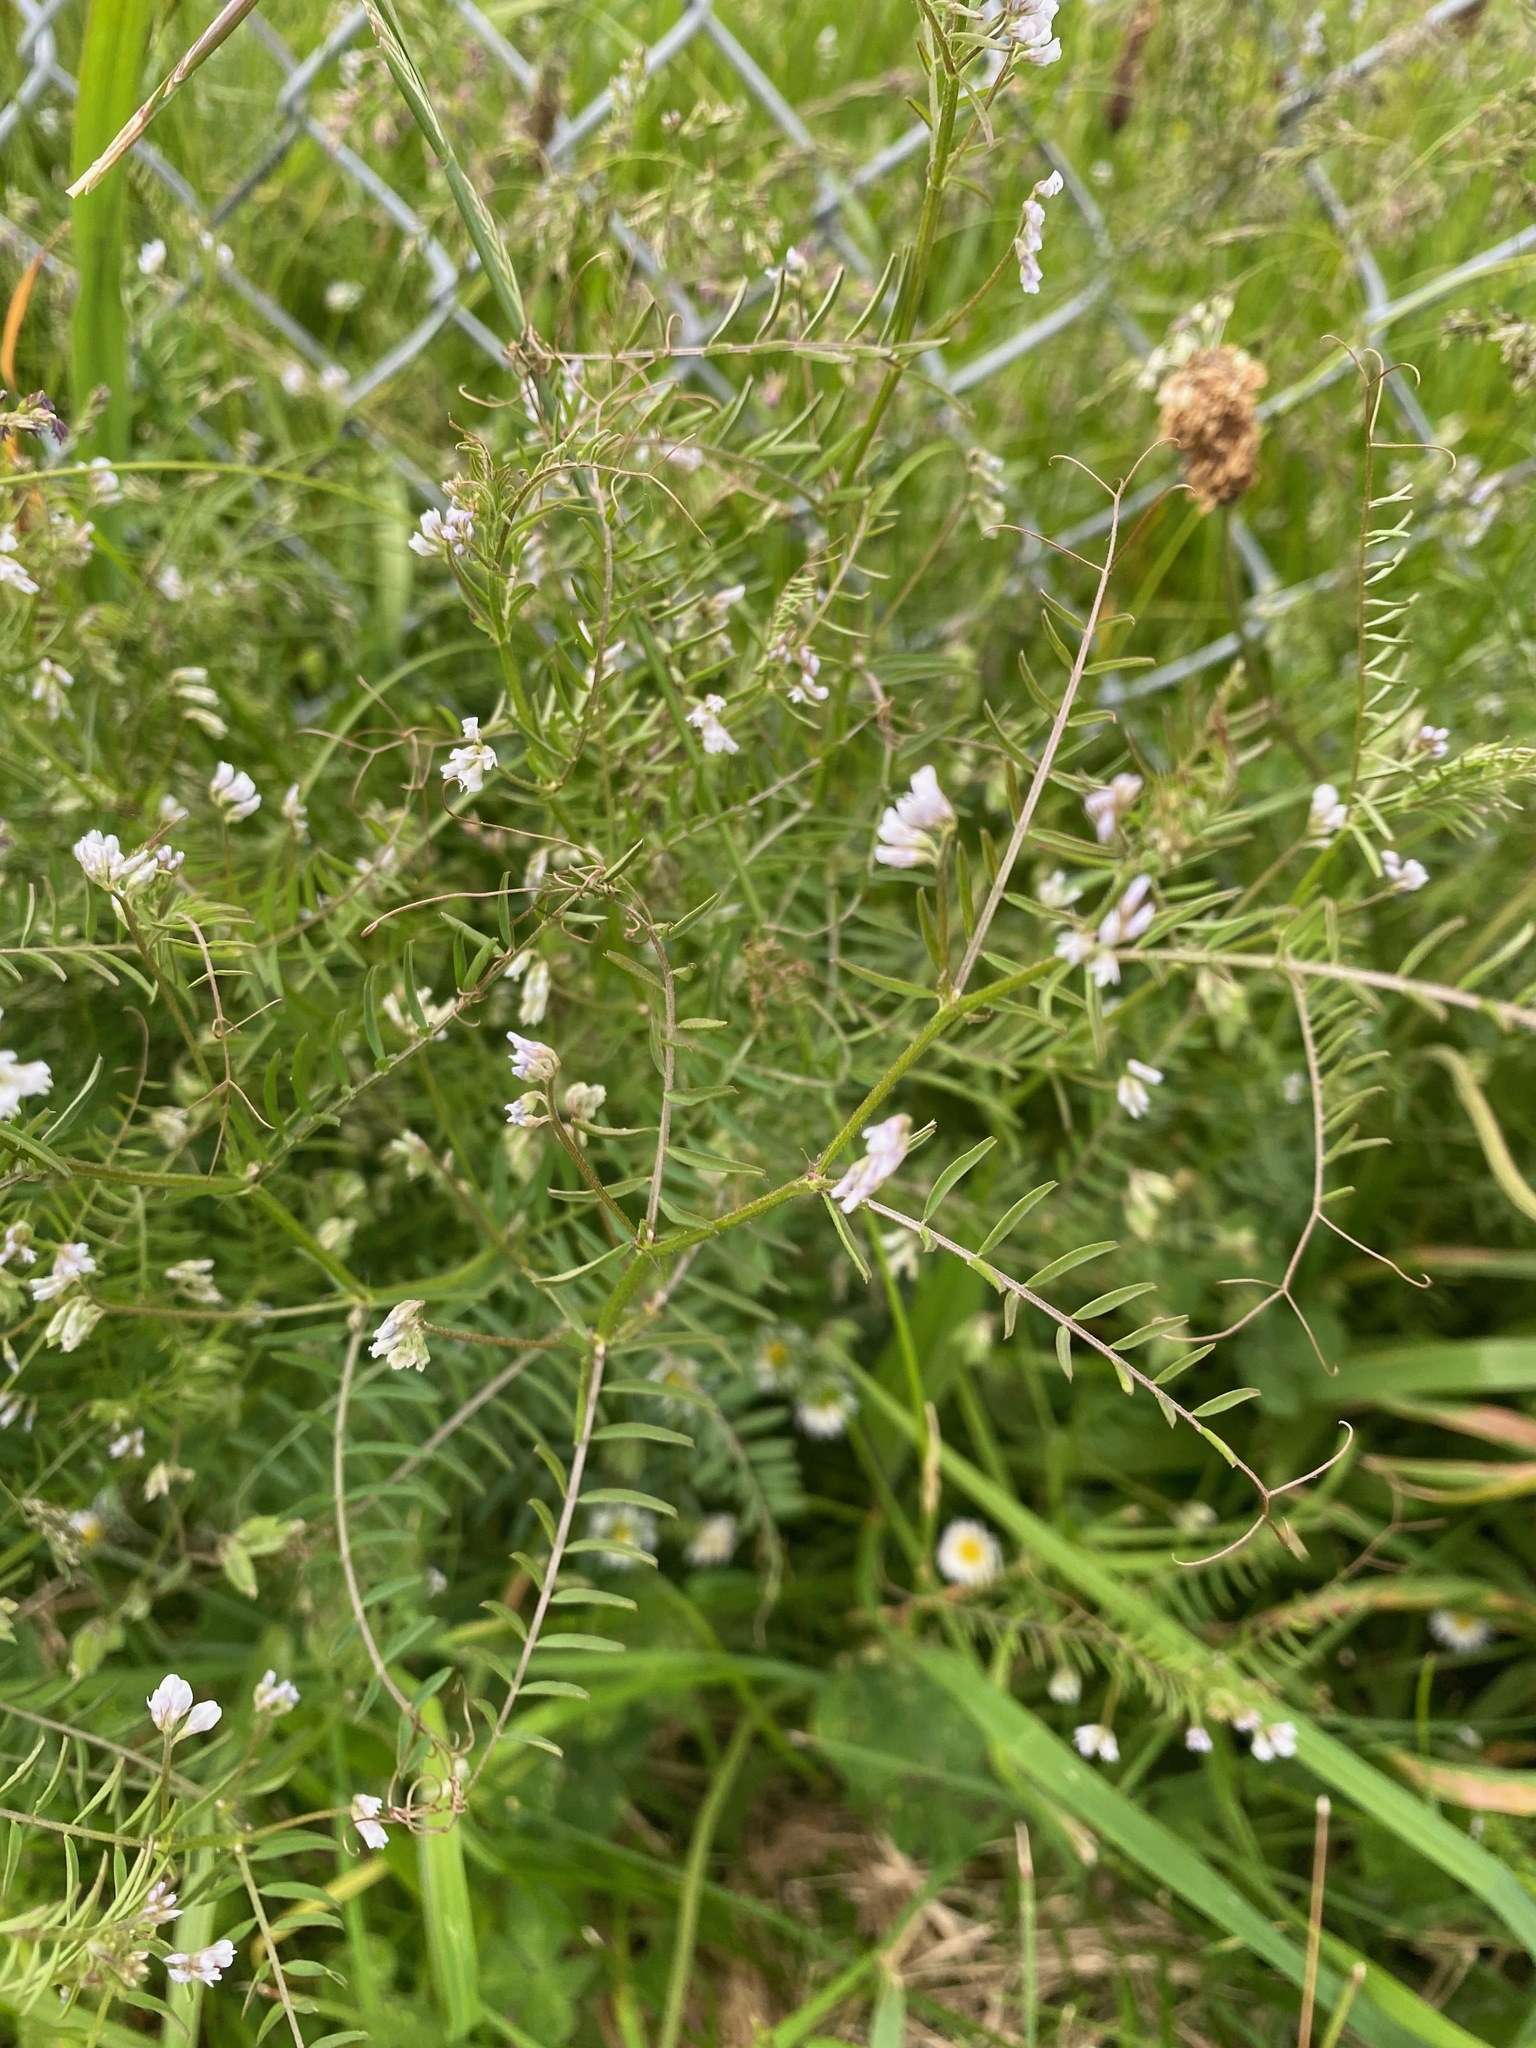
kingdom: Plantae
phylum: Tracheophyta
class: Magnoliopsida
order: Fabales
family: Fabaceae
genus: Vicia
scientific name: Vicia hirsuta
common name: Tiny vetch
